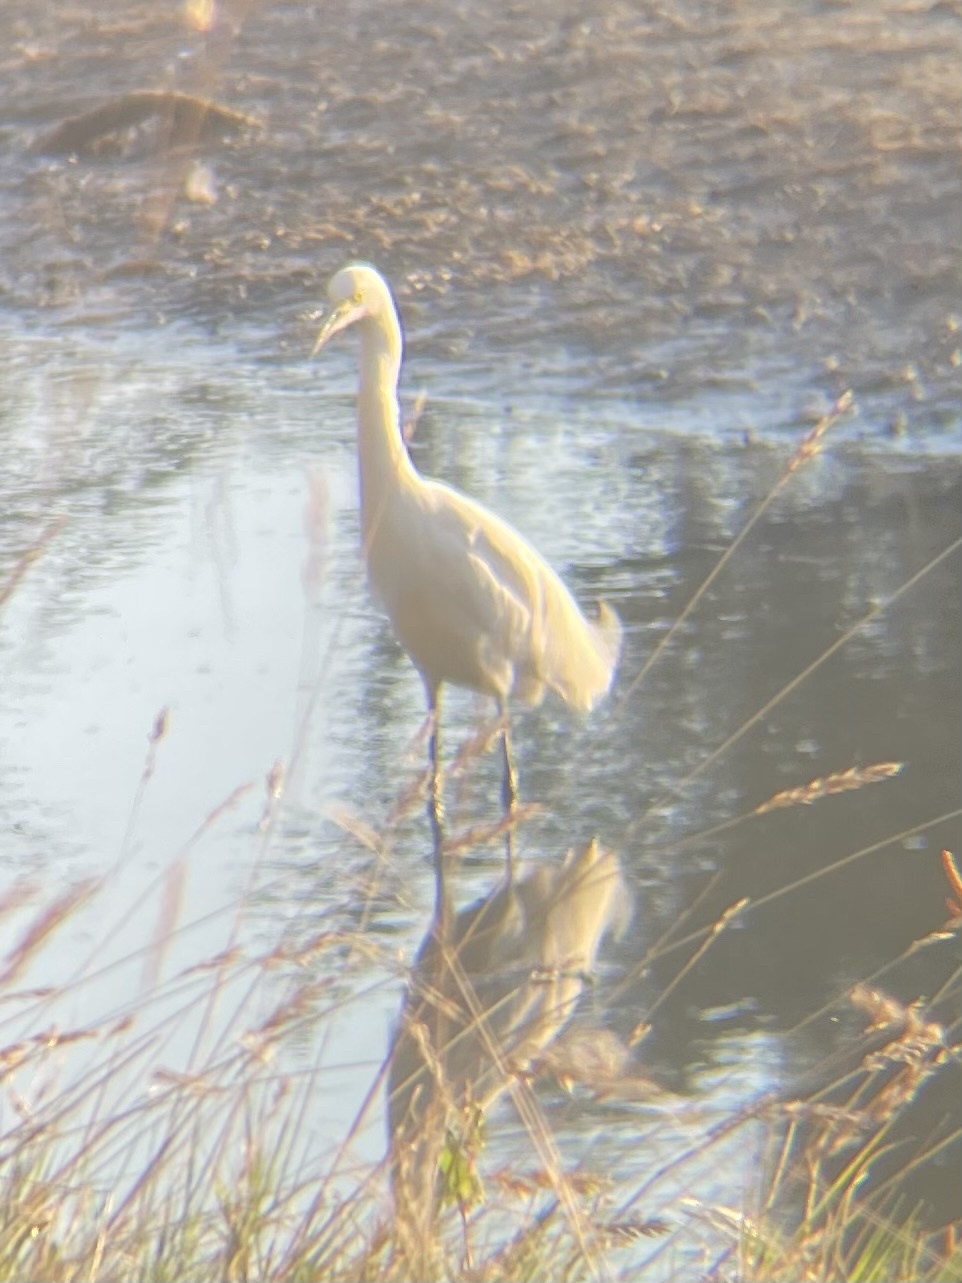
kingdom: Animalia
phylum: Chordata
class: Aves
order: Pelecaniformes
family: Ardeidae
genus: Egretta
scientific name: Egretta thula
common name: Snowy egret
